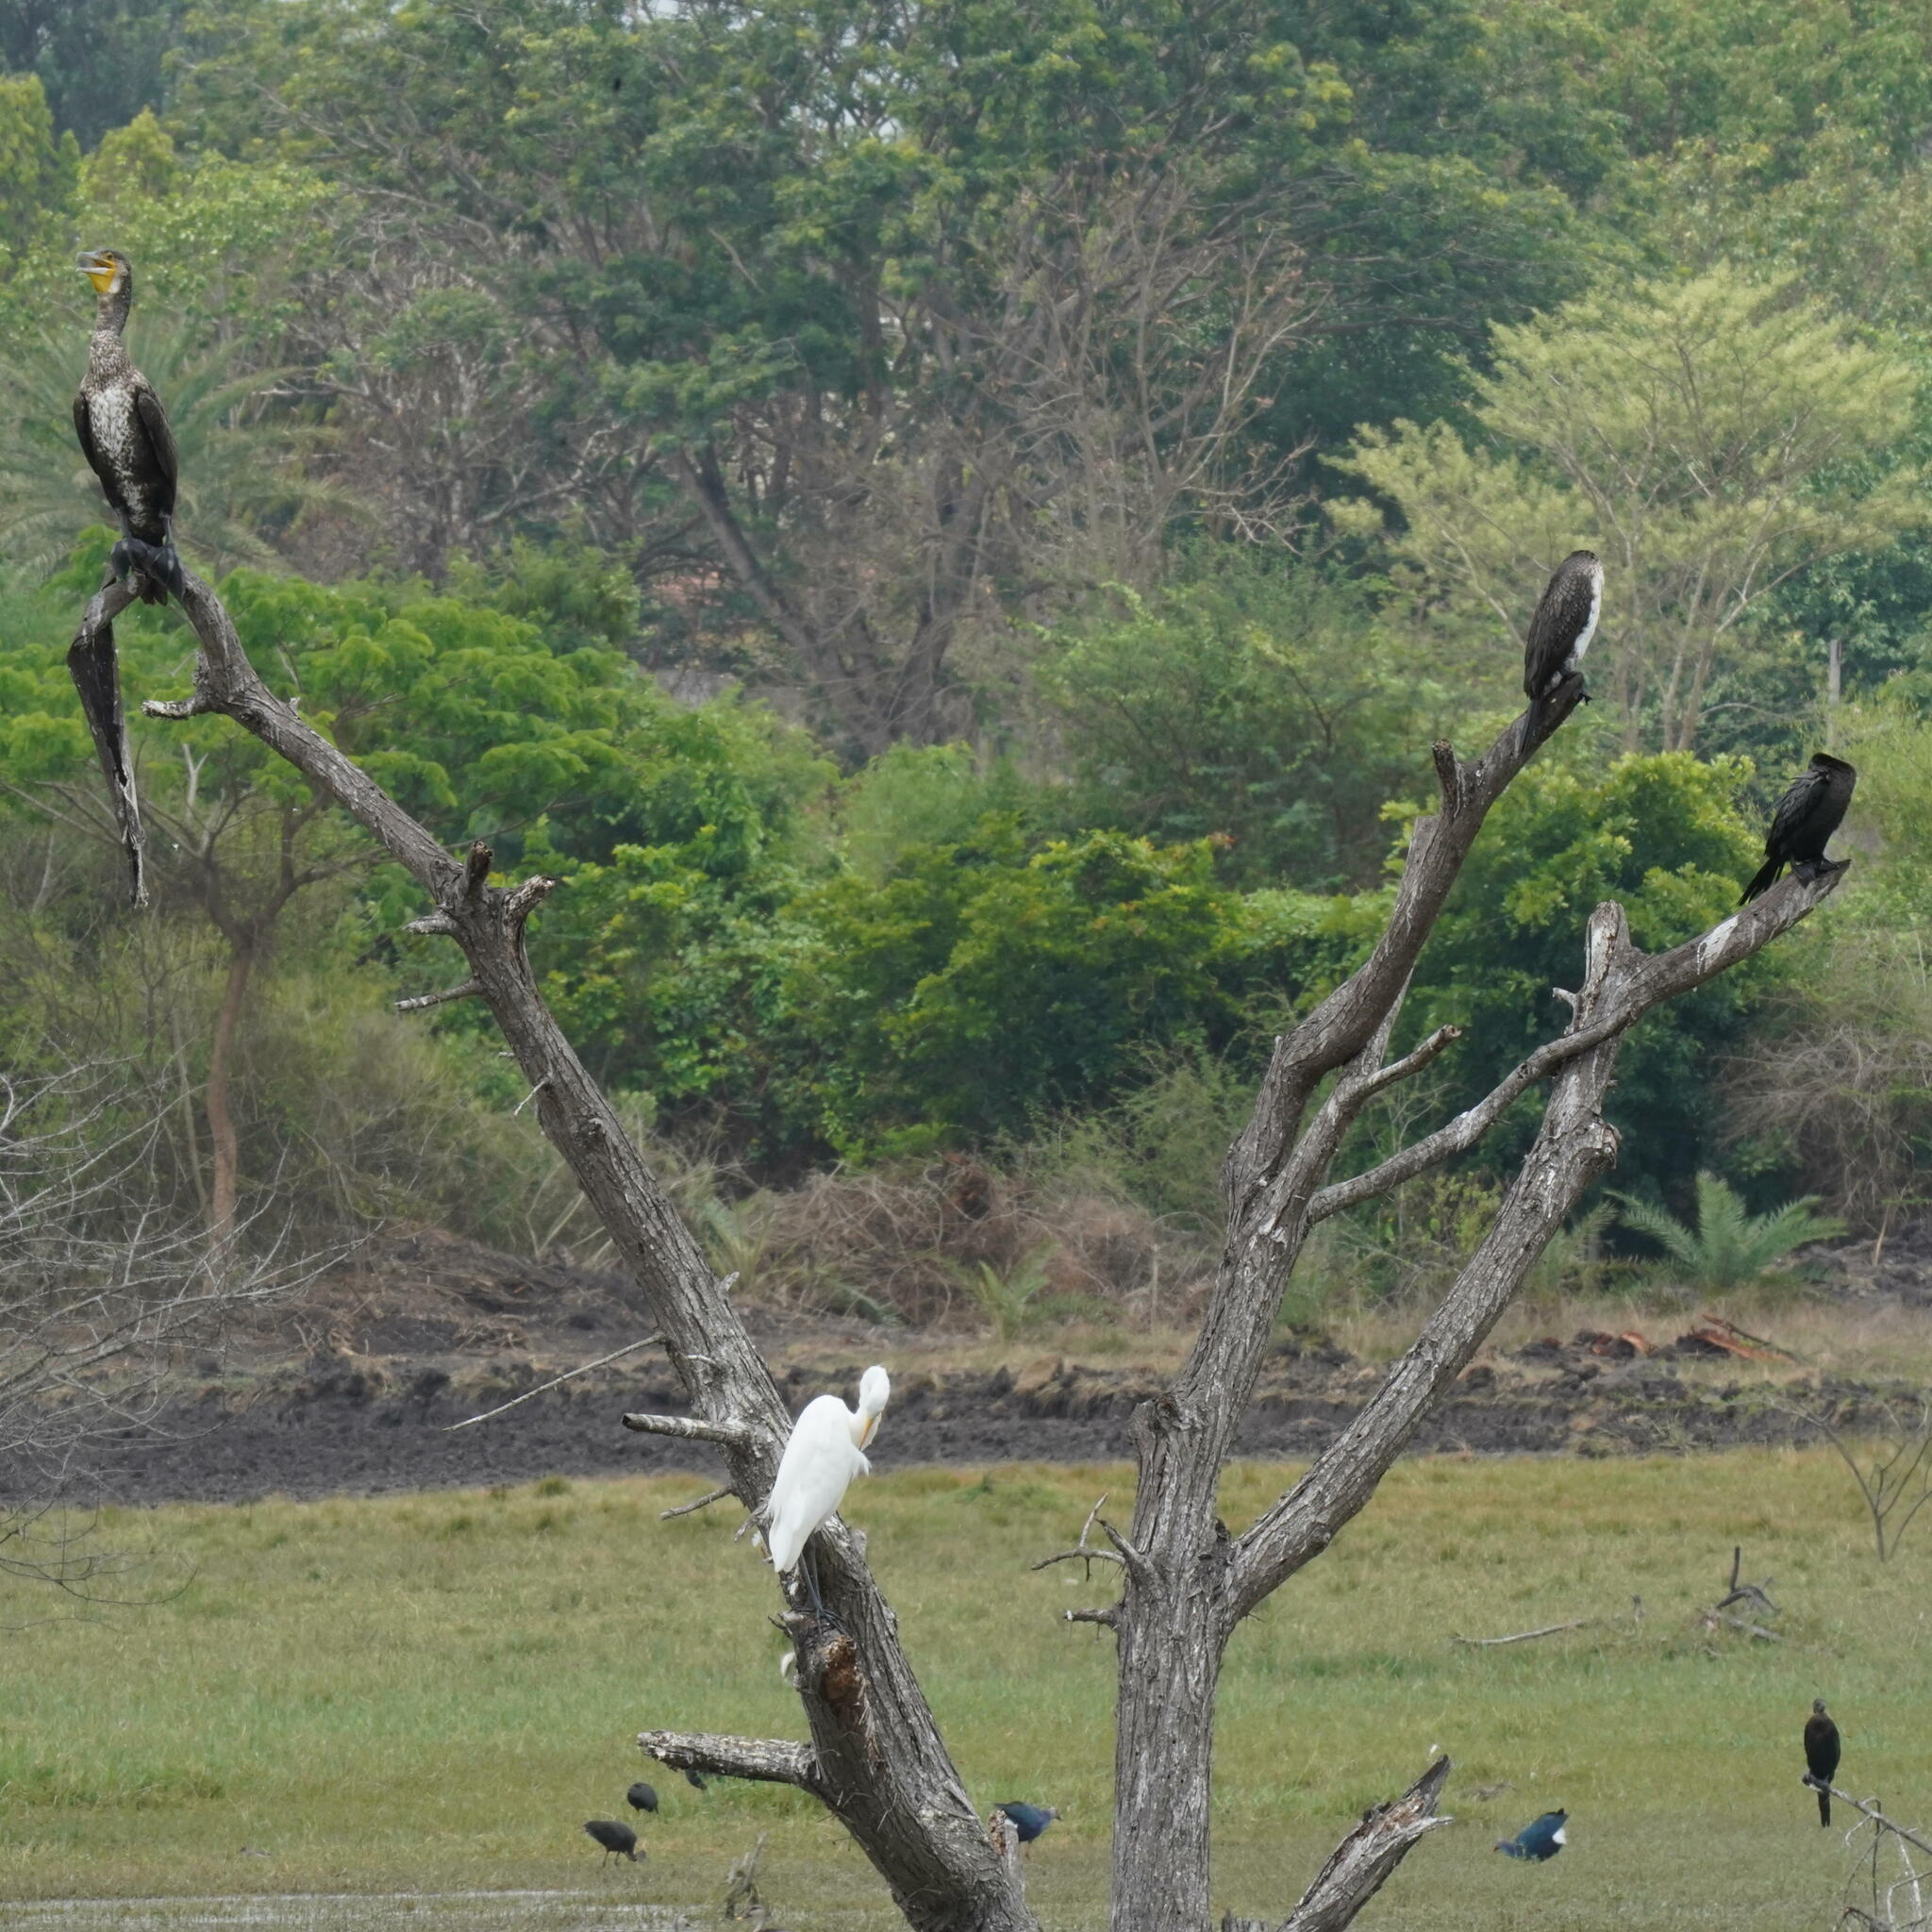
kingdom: Animalia
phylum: Chordata
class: Aves
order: Suliformes
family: Phalacrocoracidae
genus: Phalacrocorax
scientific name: Phalacrocorax fuscicollis
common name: Indian cormorant
